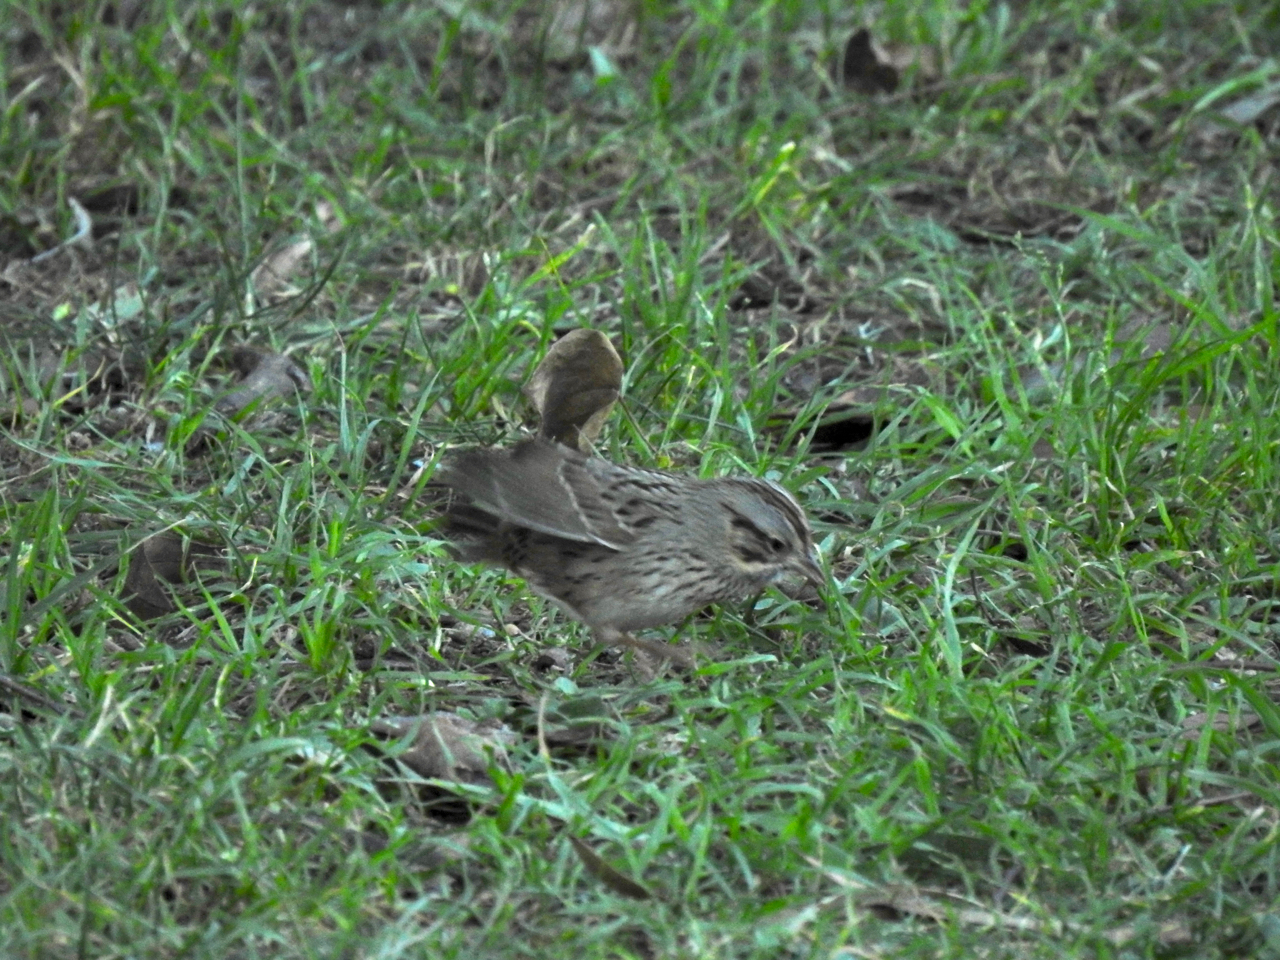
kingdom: Animalia
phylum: Chordata
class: Aves
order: Passeriformes
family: Passerellidae
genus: Melospiza
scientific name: Melospiza lincolnii
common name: Lincoln's sparrow
